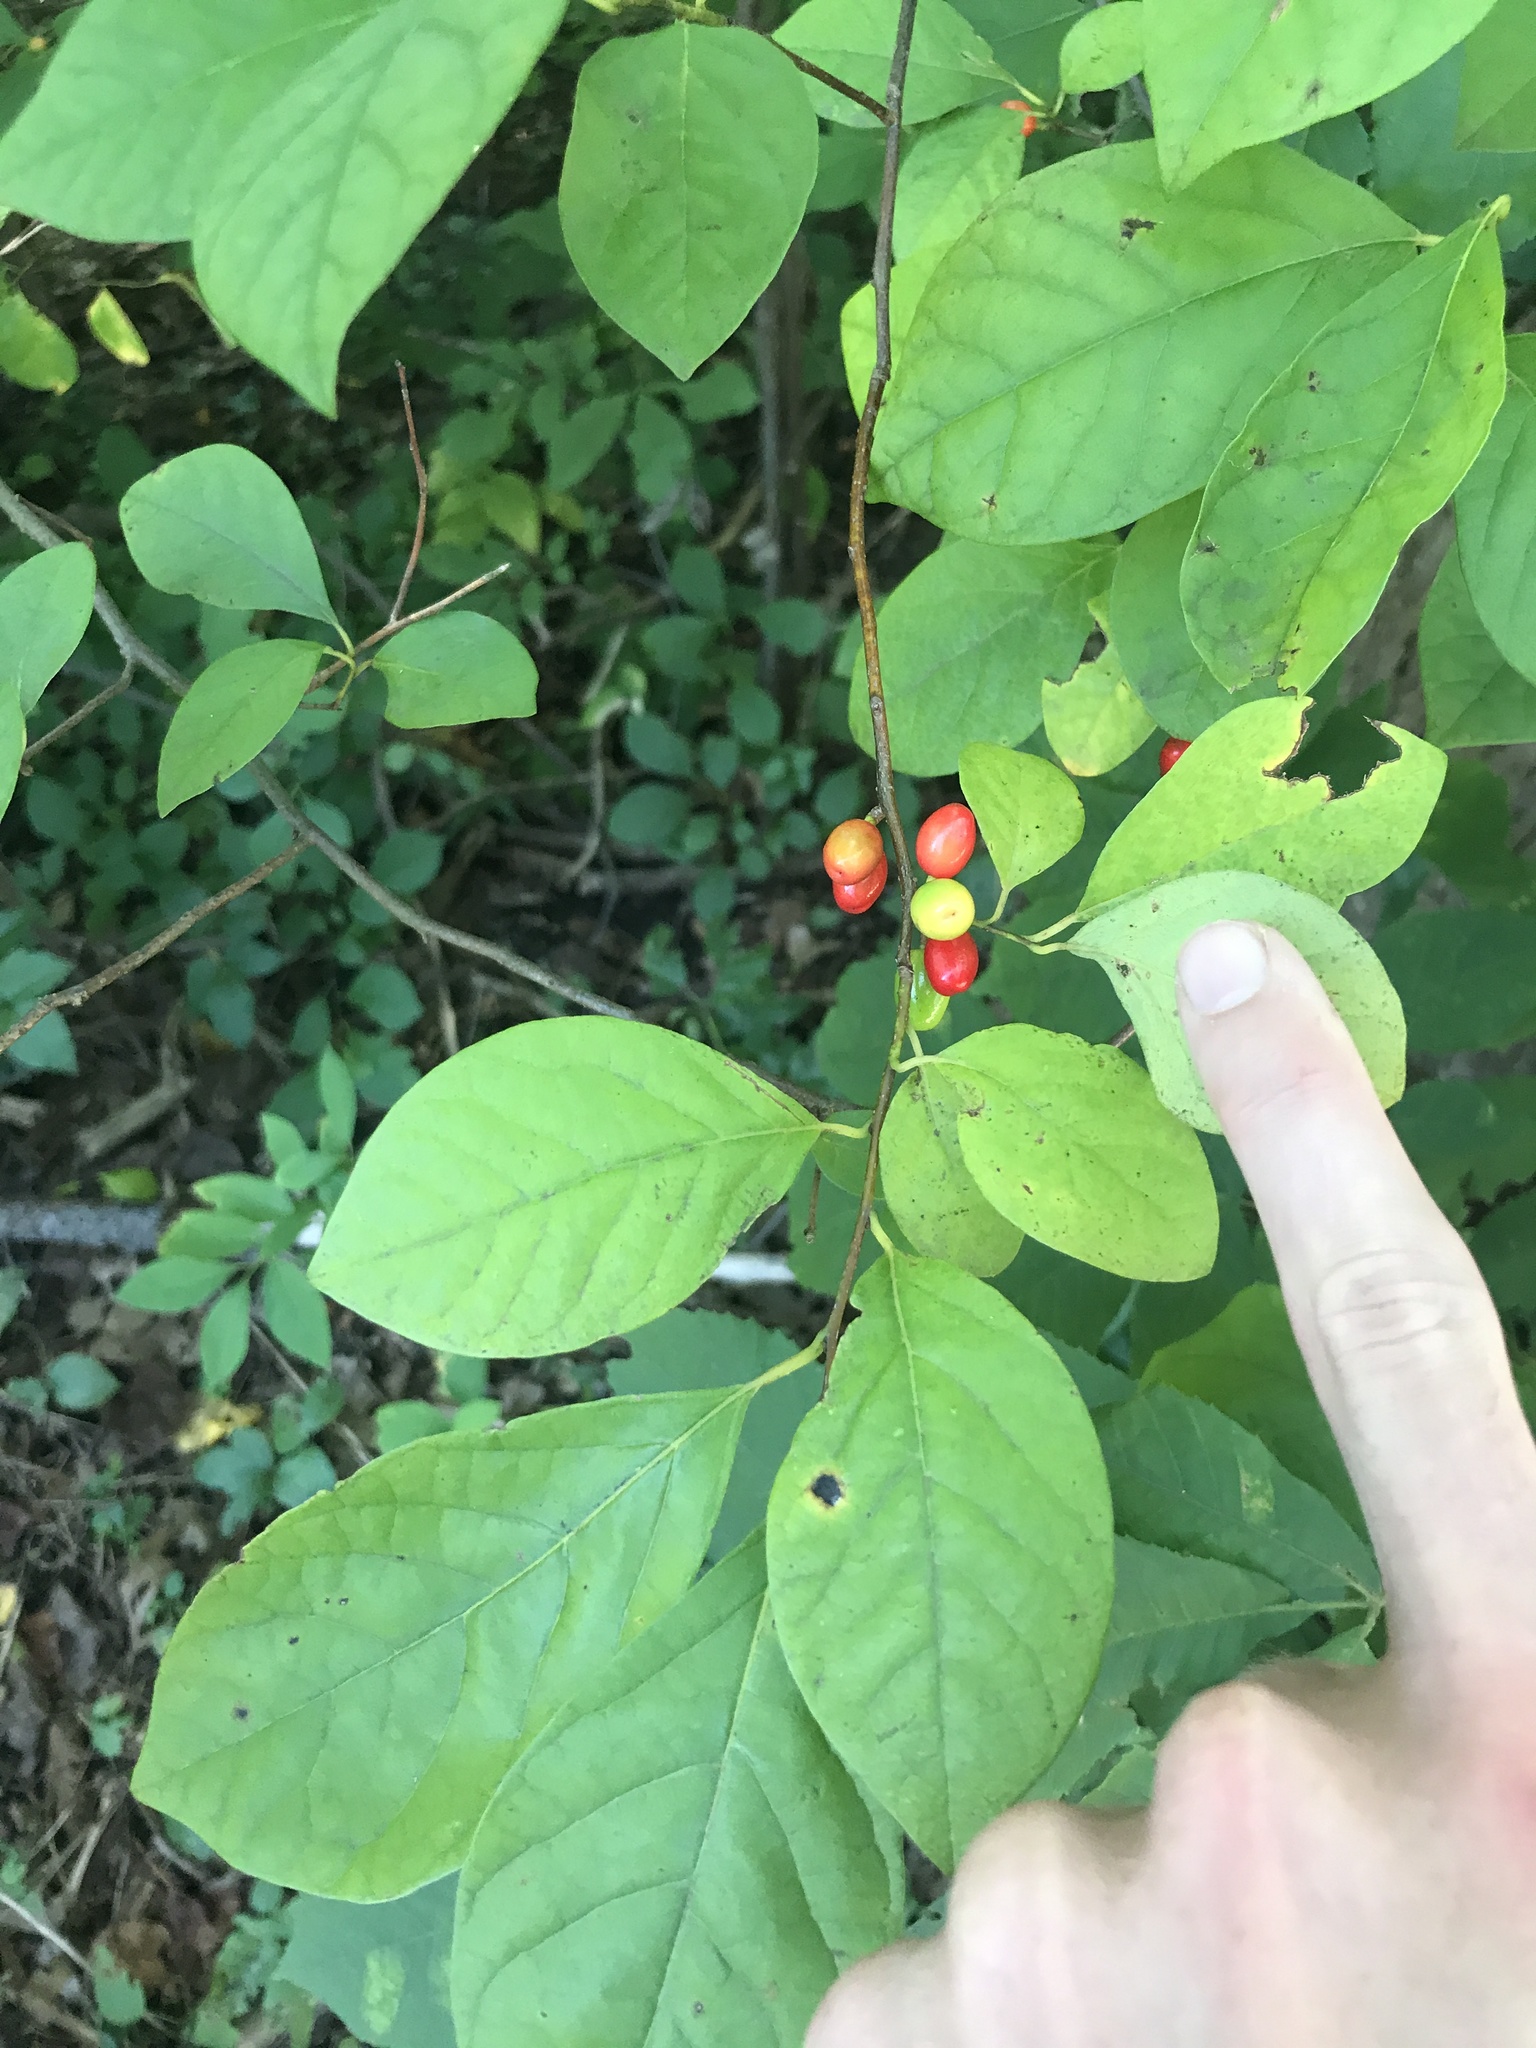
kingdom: Plantae
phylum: Tracheophyta
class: Magnoliopsida
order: Laurales
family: Lauraceae
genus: Lindera
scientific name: Lindera benzoin
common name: Spicebush
